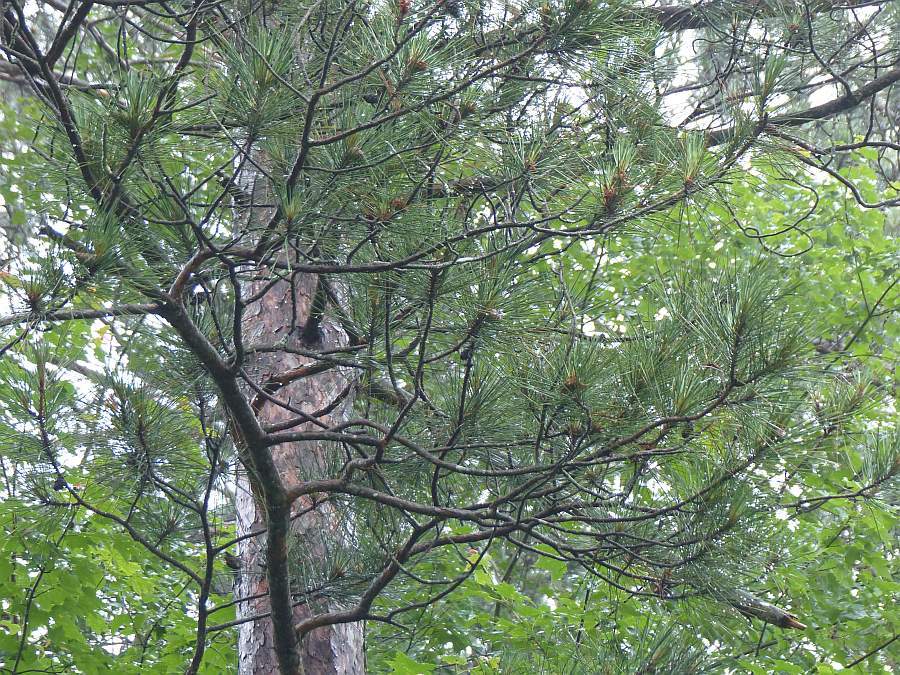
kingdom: Plantae
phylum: Tracheophyta
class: Pinopsida
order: Pinales
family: Pinaceae
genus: Pinus
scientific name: Pinus resinosa
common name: Norway pine
